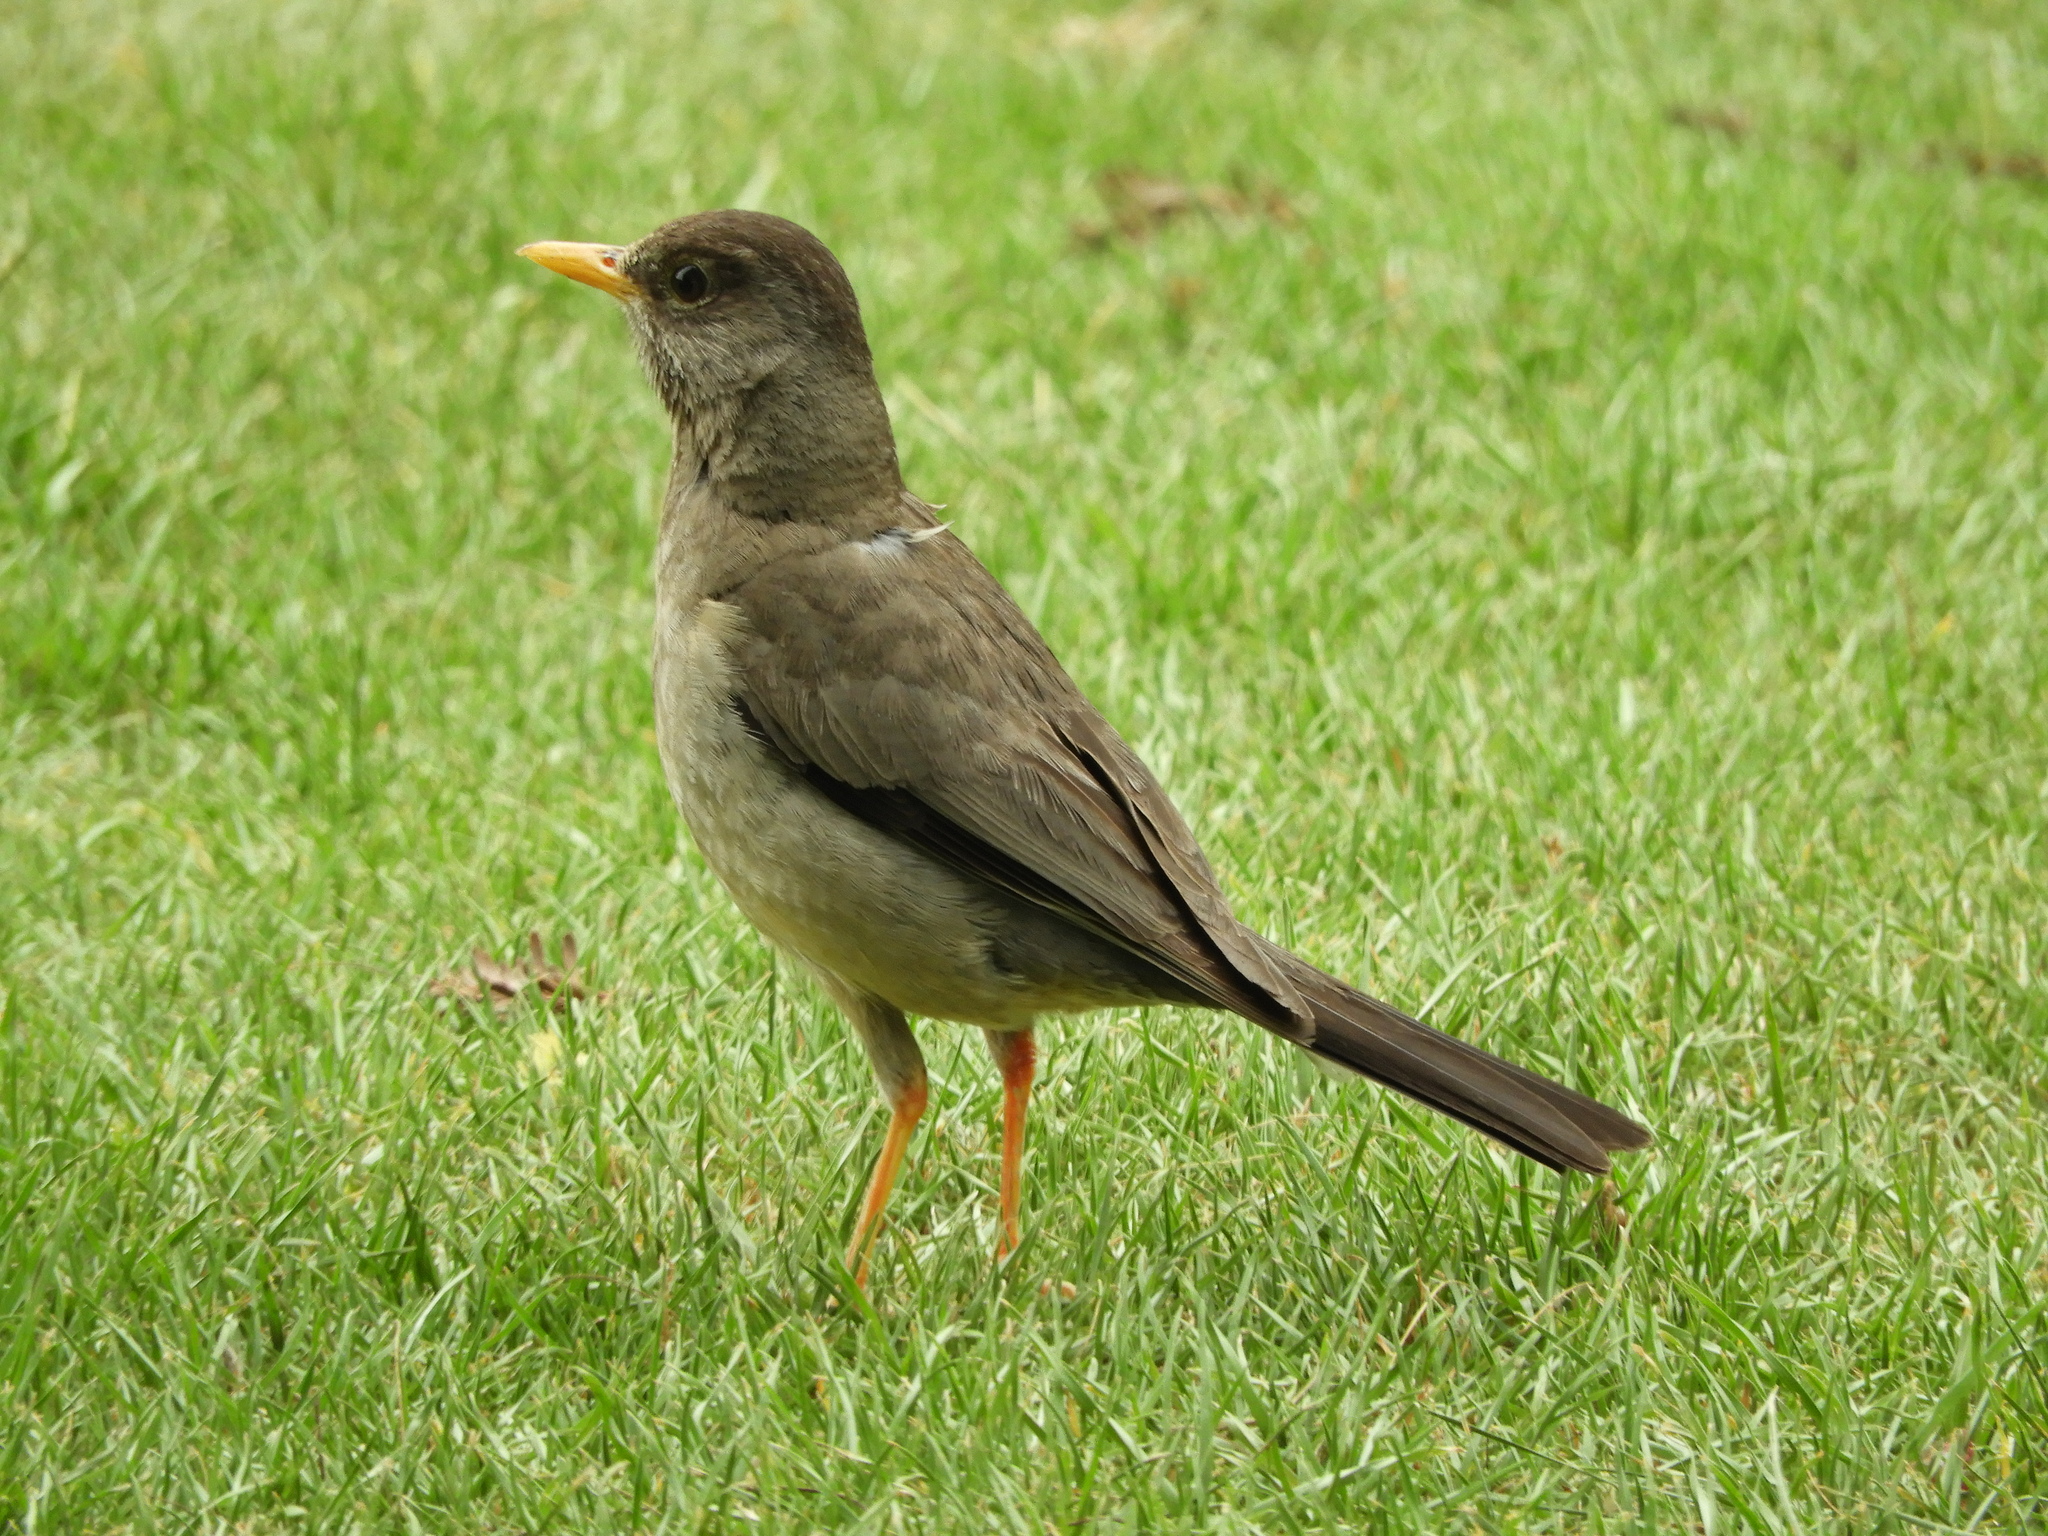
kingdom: Animalia
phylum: Chordata
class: Aves
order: Passeriformes
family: Turdidae
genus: Turdus
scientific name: Turdus falcklandii
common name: Austral thrush
